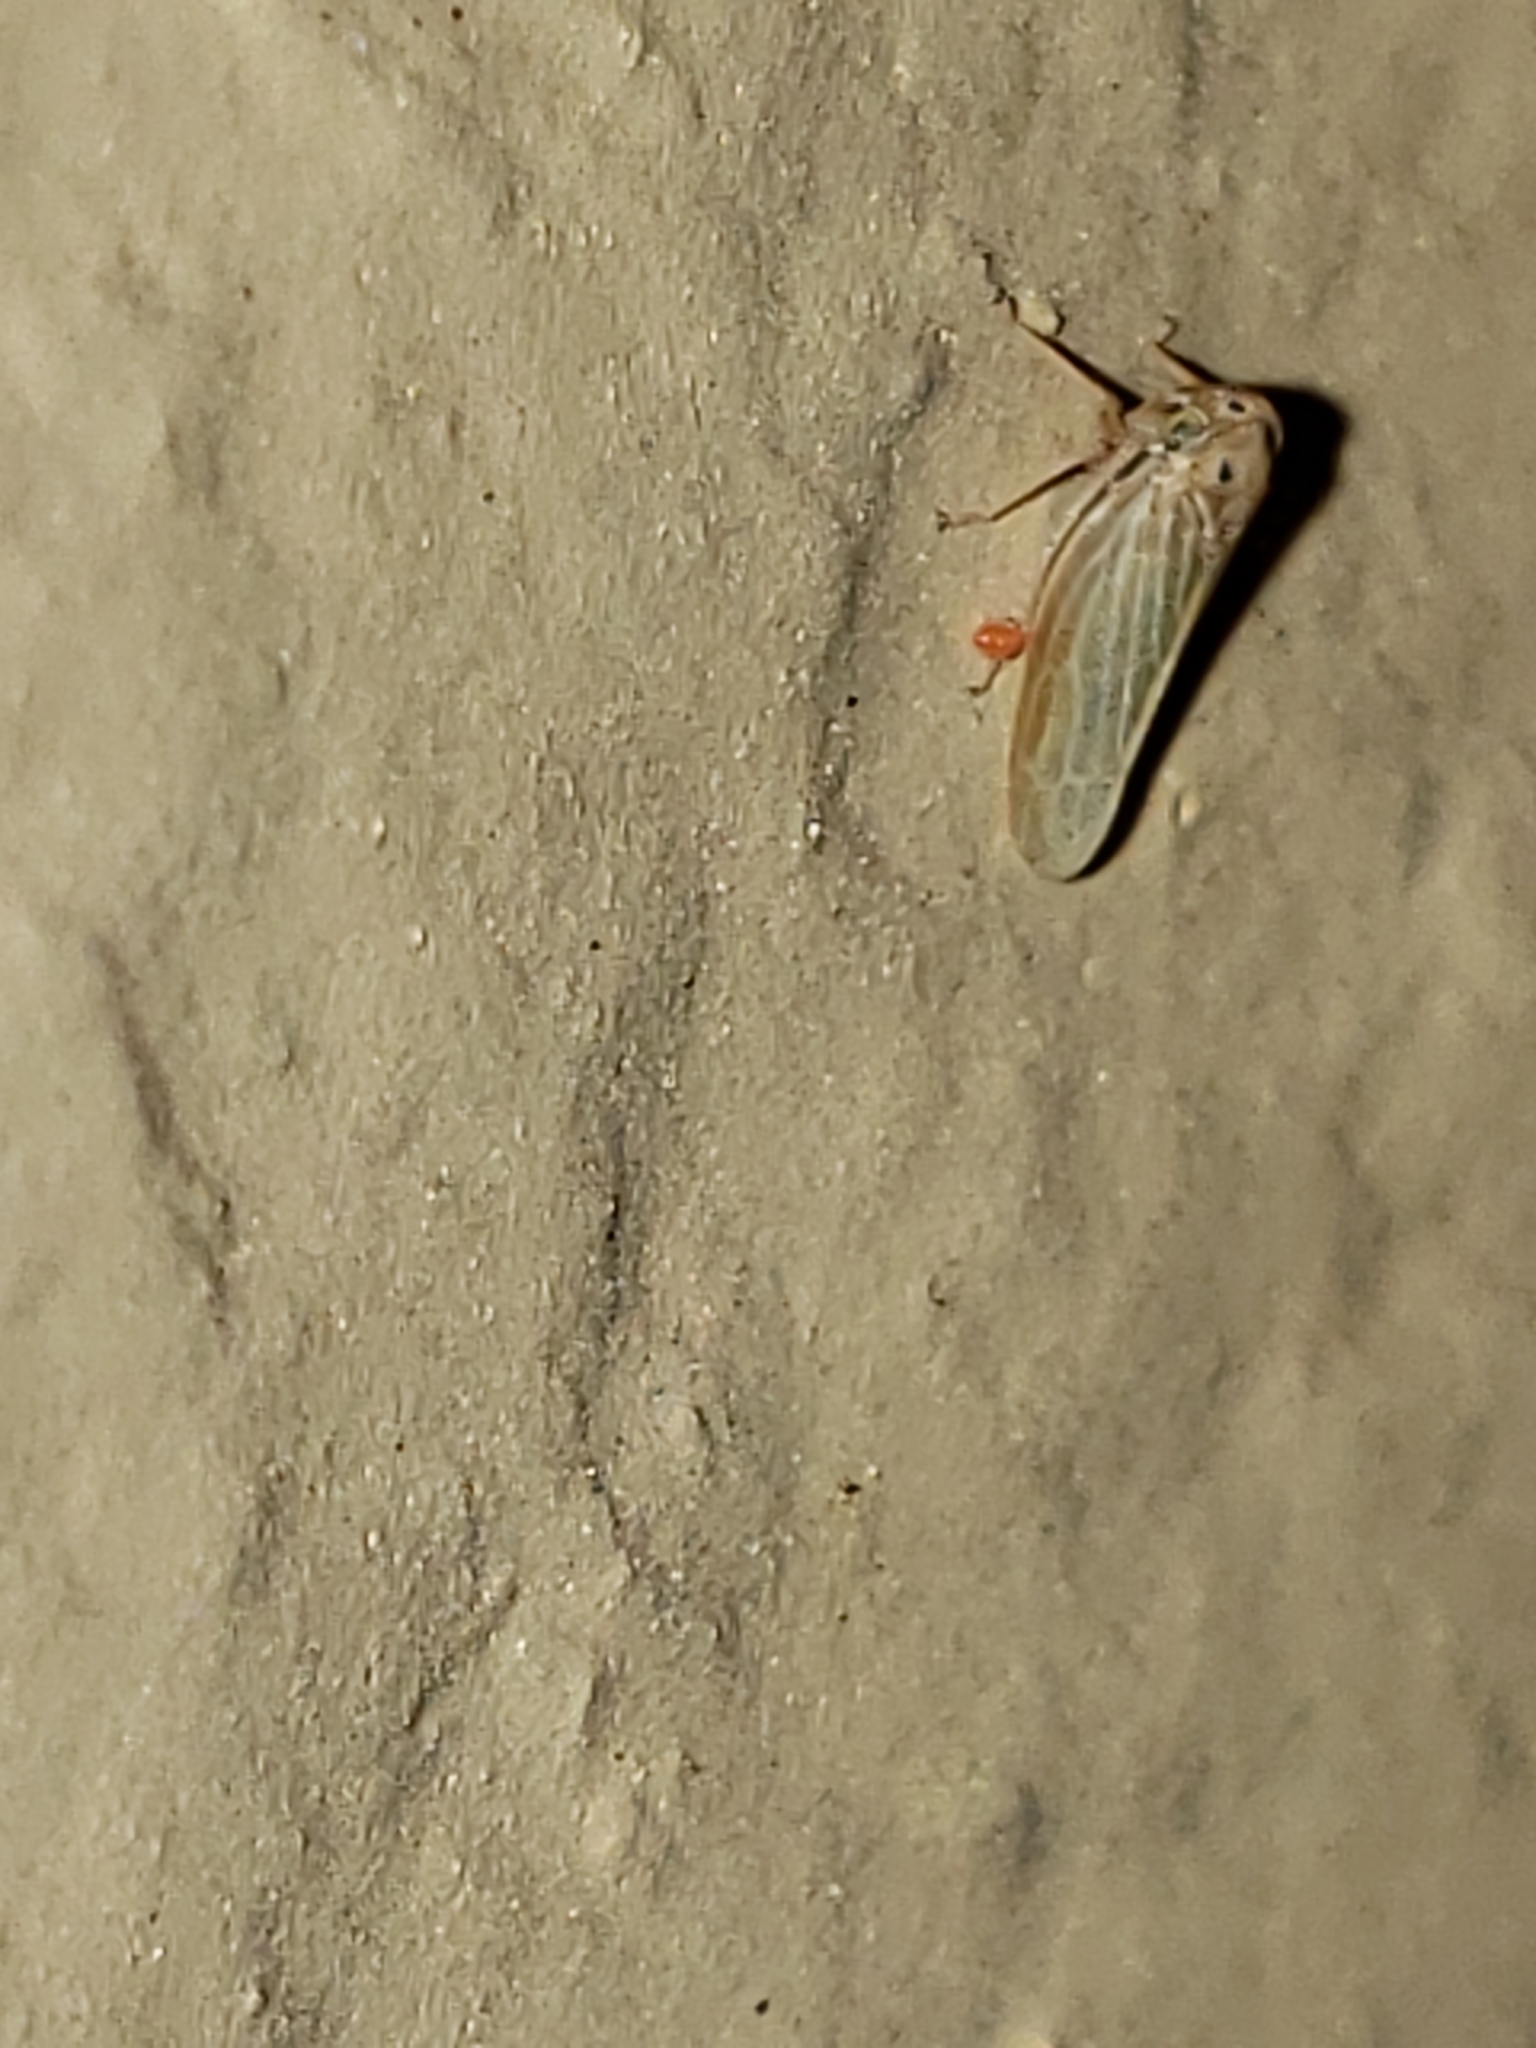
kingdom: Animalia
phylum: Arthropoda
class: Insecta
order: Hemiptera
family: Cicadellidae
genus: Agallia
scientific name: Agallia constricta
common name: The constricted leafhopper
